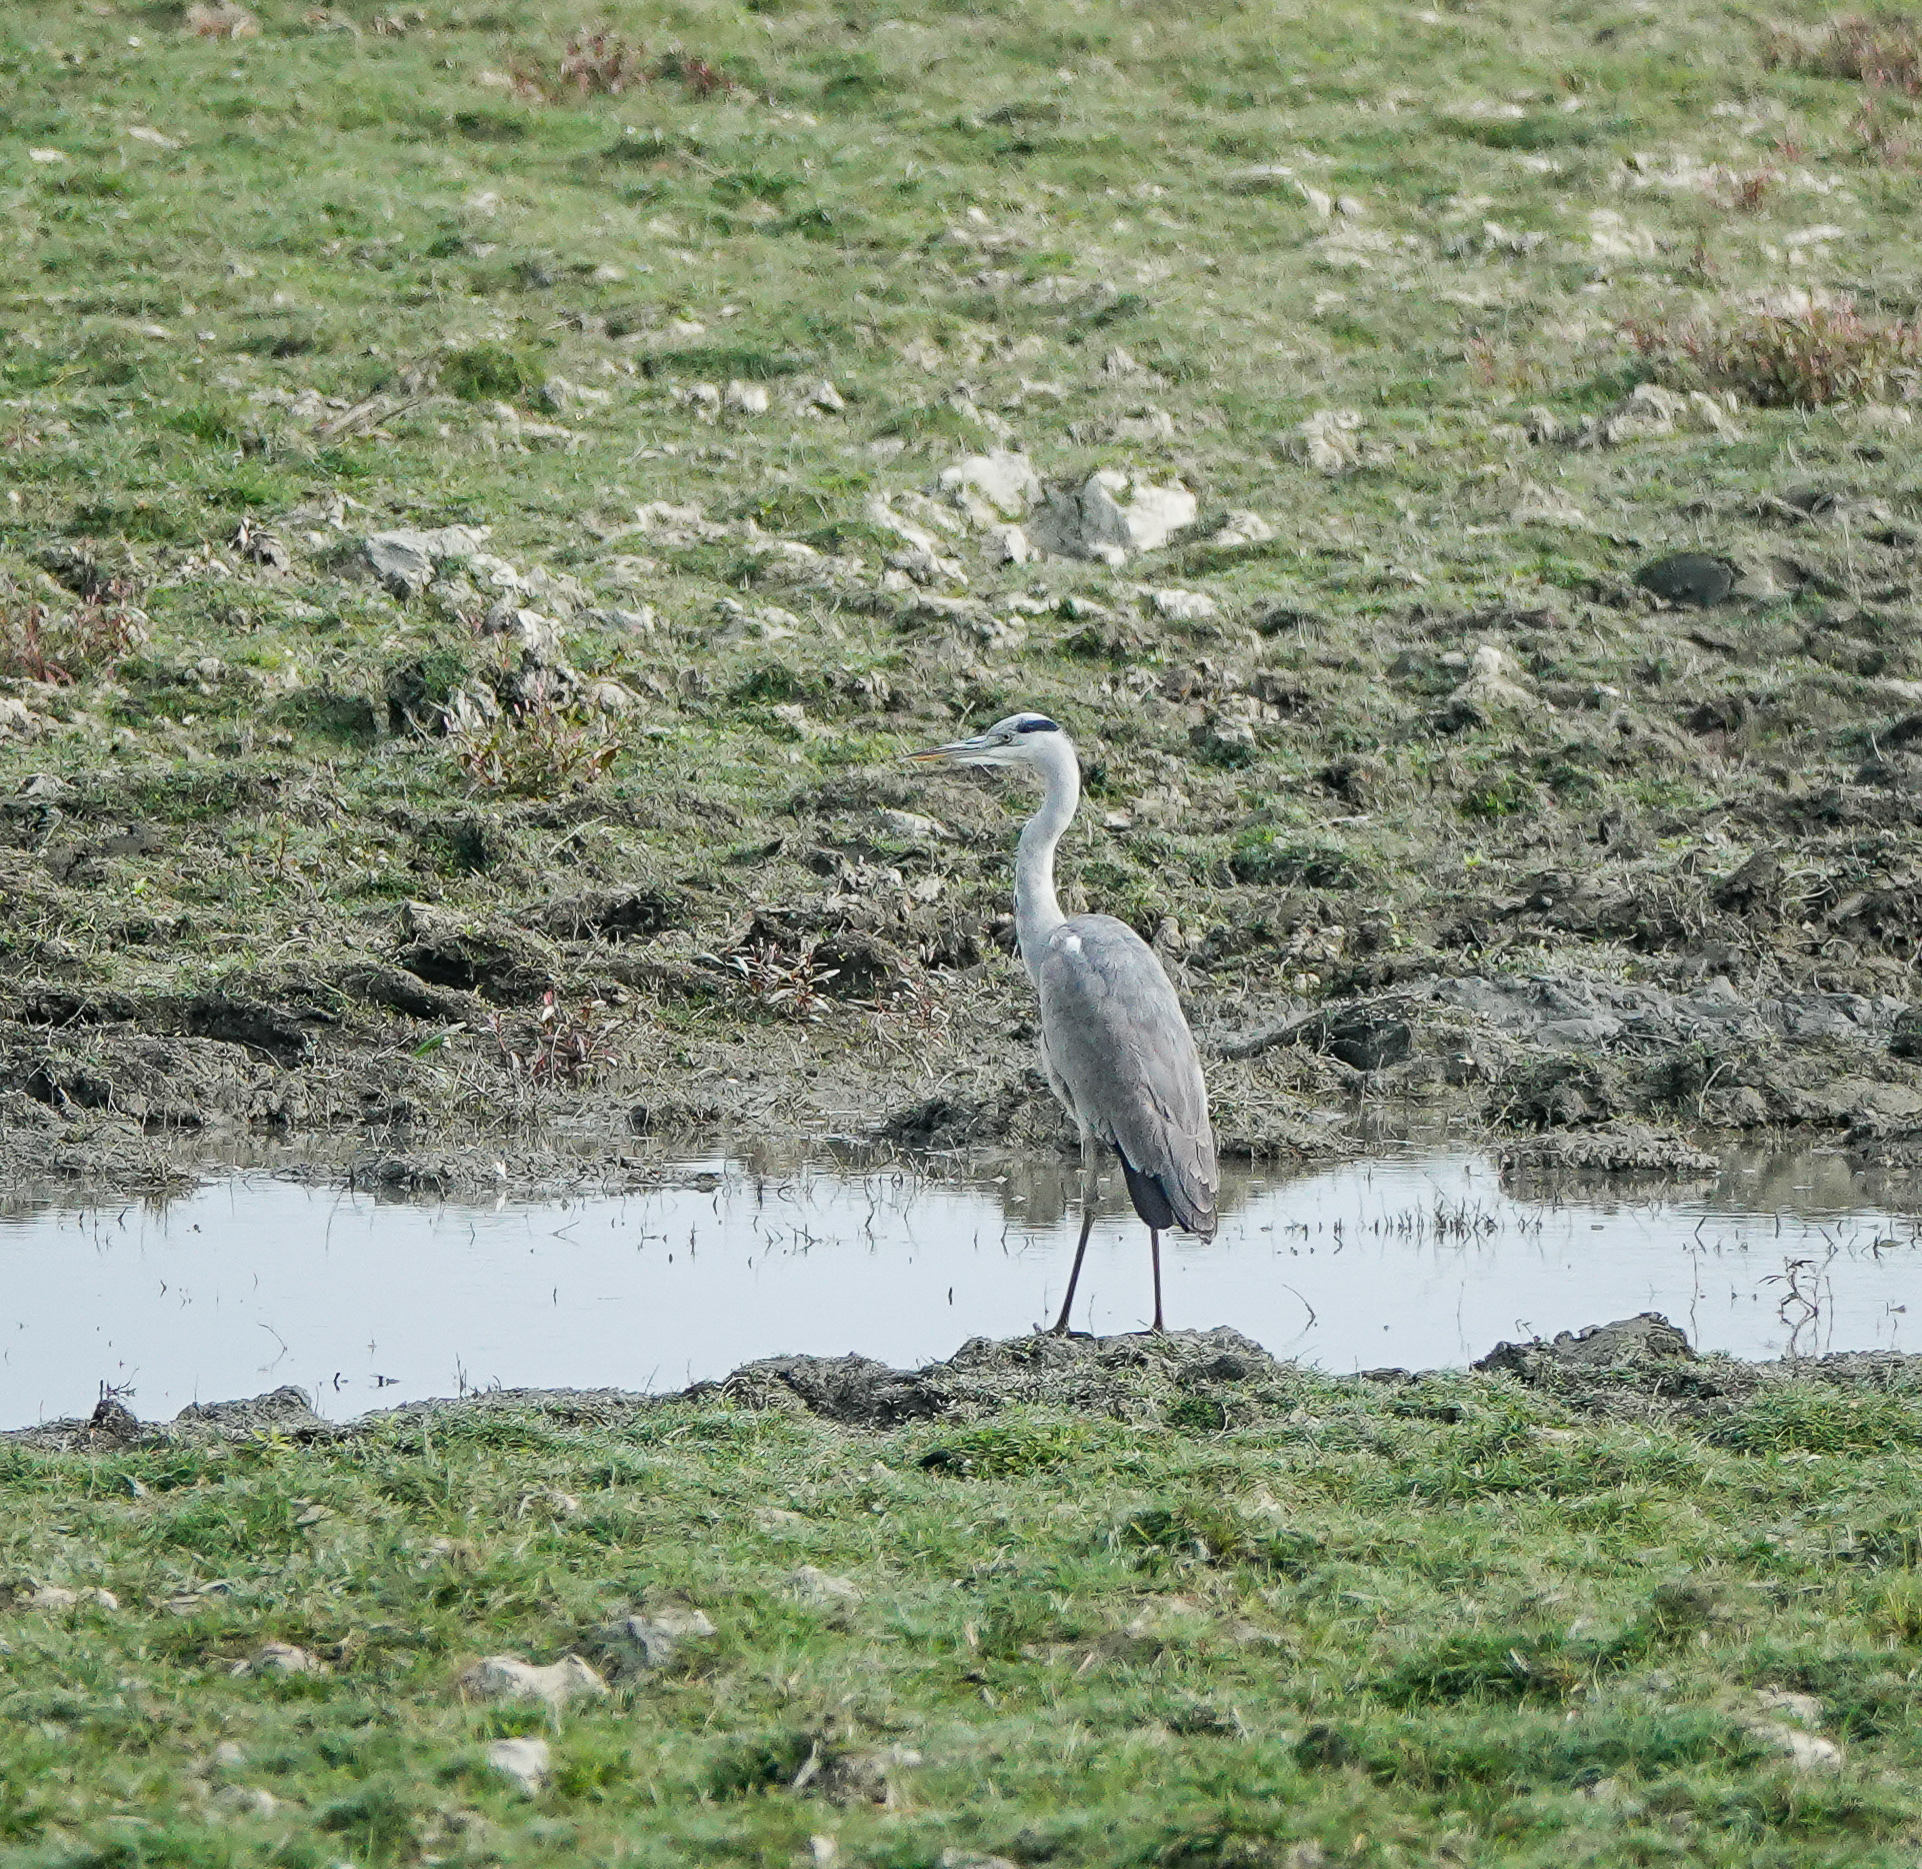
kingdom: Animalia
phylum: Chordata
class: Aves
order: Pelecaniformes
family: Ardeidae
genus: Ardea
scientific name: Ardea cinerea
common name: Grey heron
